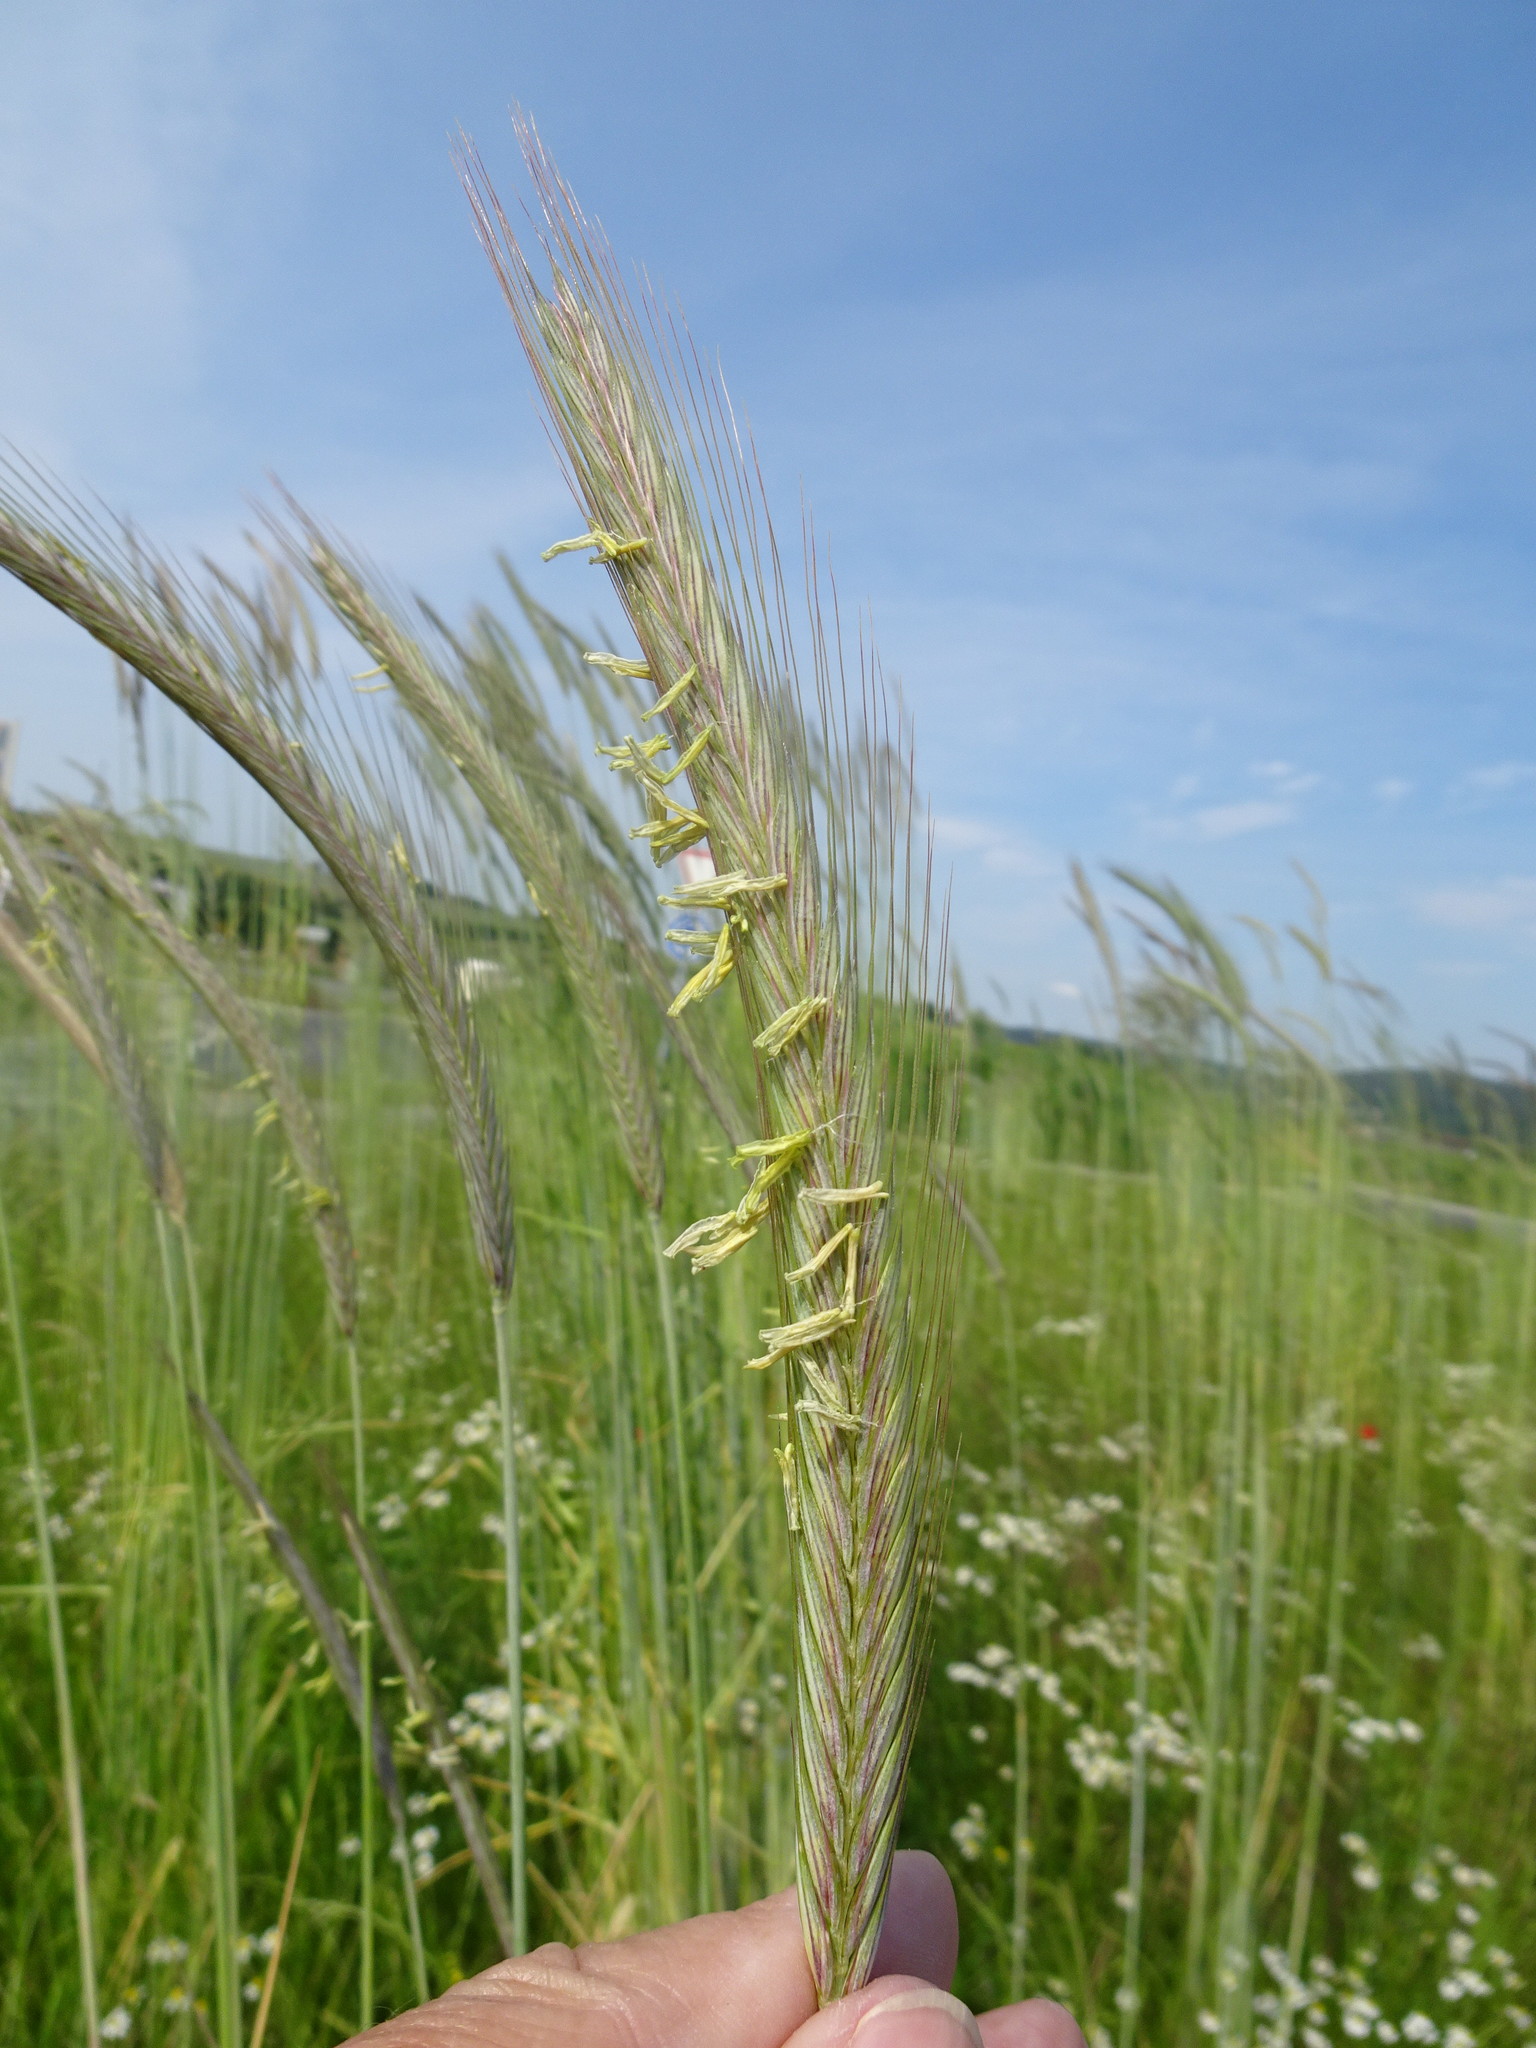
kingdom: Plantae
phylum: Tracheophyta
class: Liliopsida
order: Poales
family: Poaceae
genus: Secale
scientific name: Secale cereale
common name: Rye
